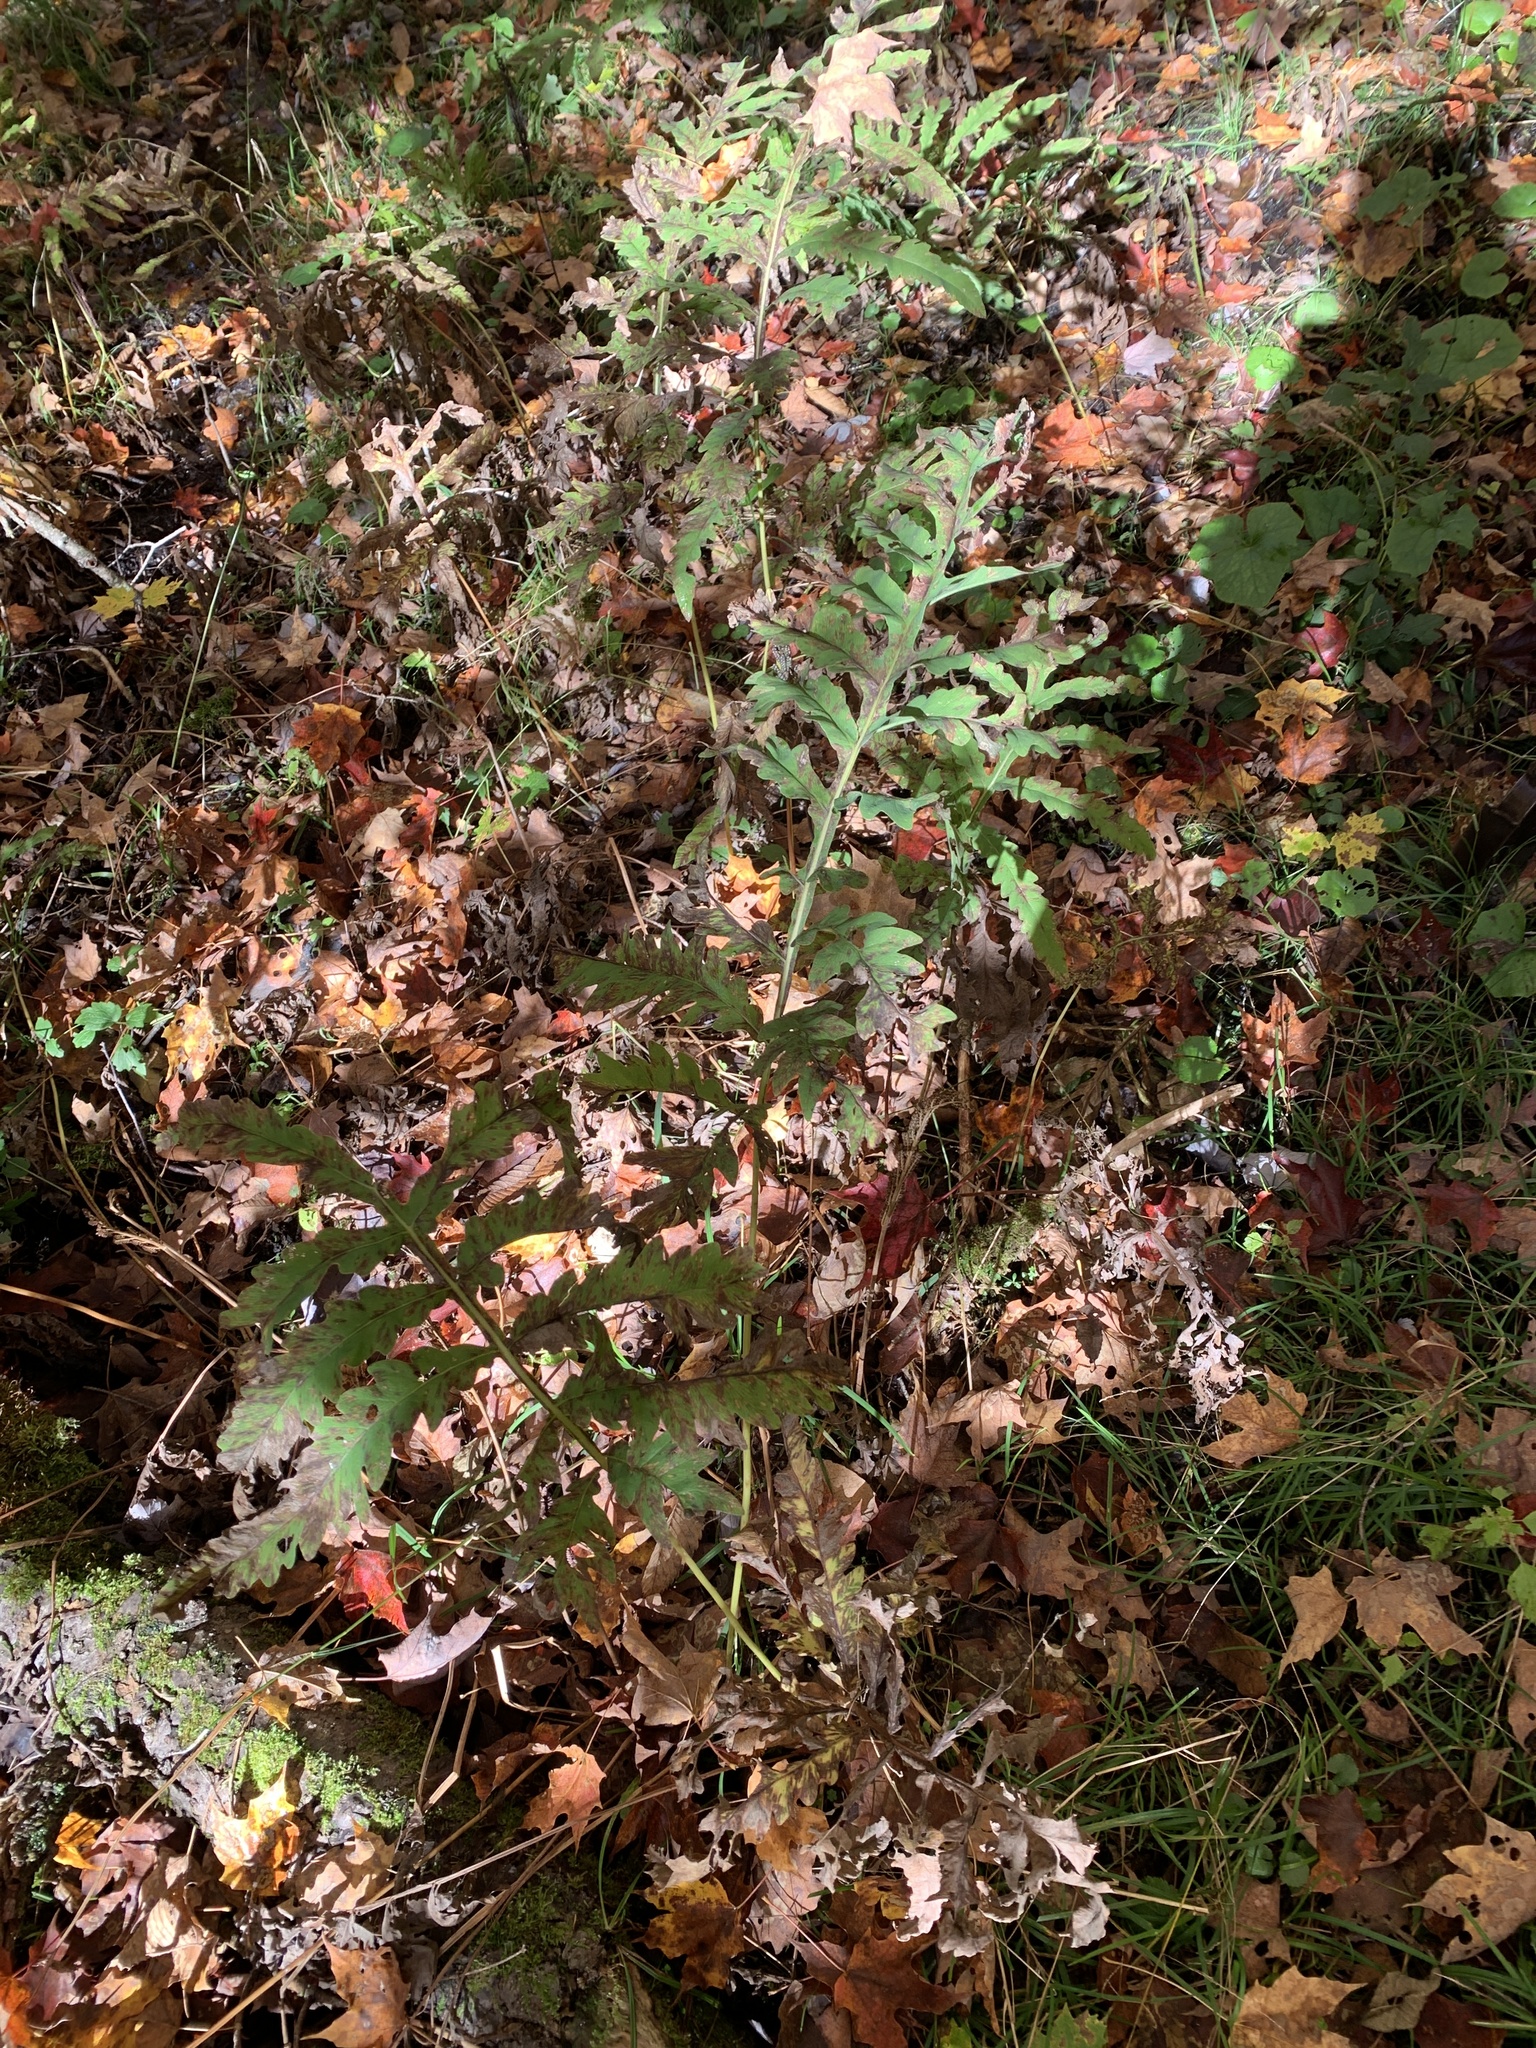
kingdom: Plantae
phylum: Tracheophyta
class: Polypodiopsida
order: Polypodiales
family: Onocleaceae
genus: Onoclea
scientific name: Onoclea sensibilis
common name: Sensitive fern
